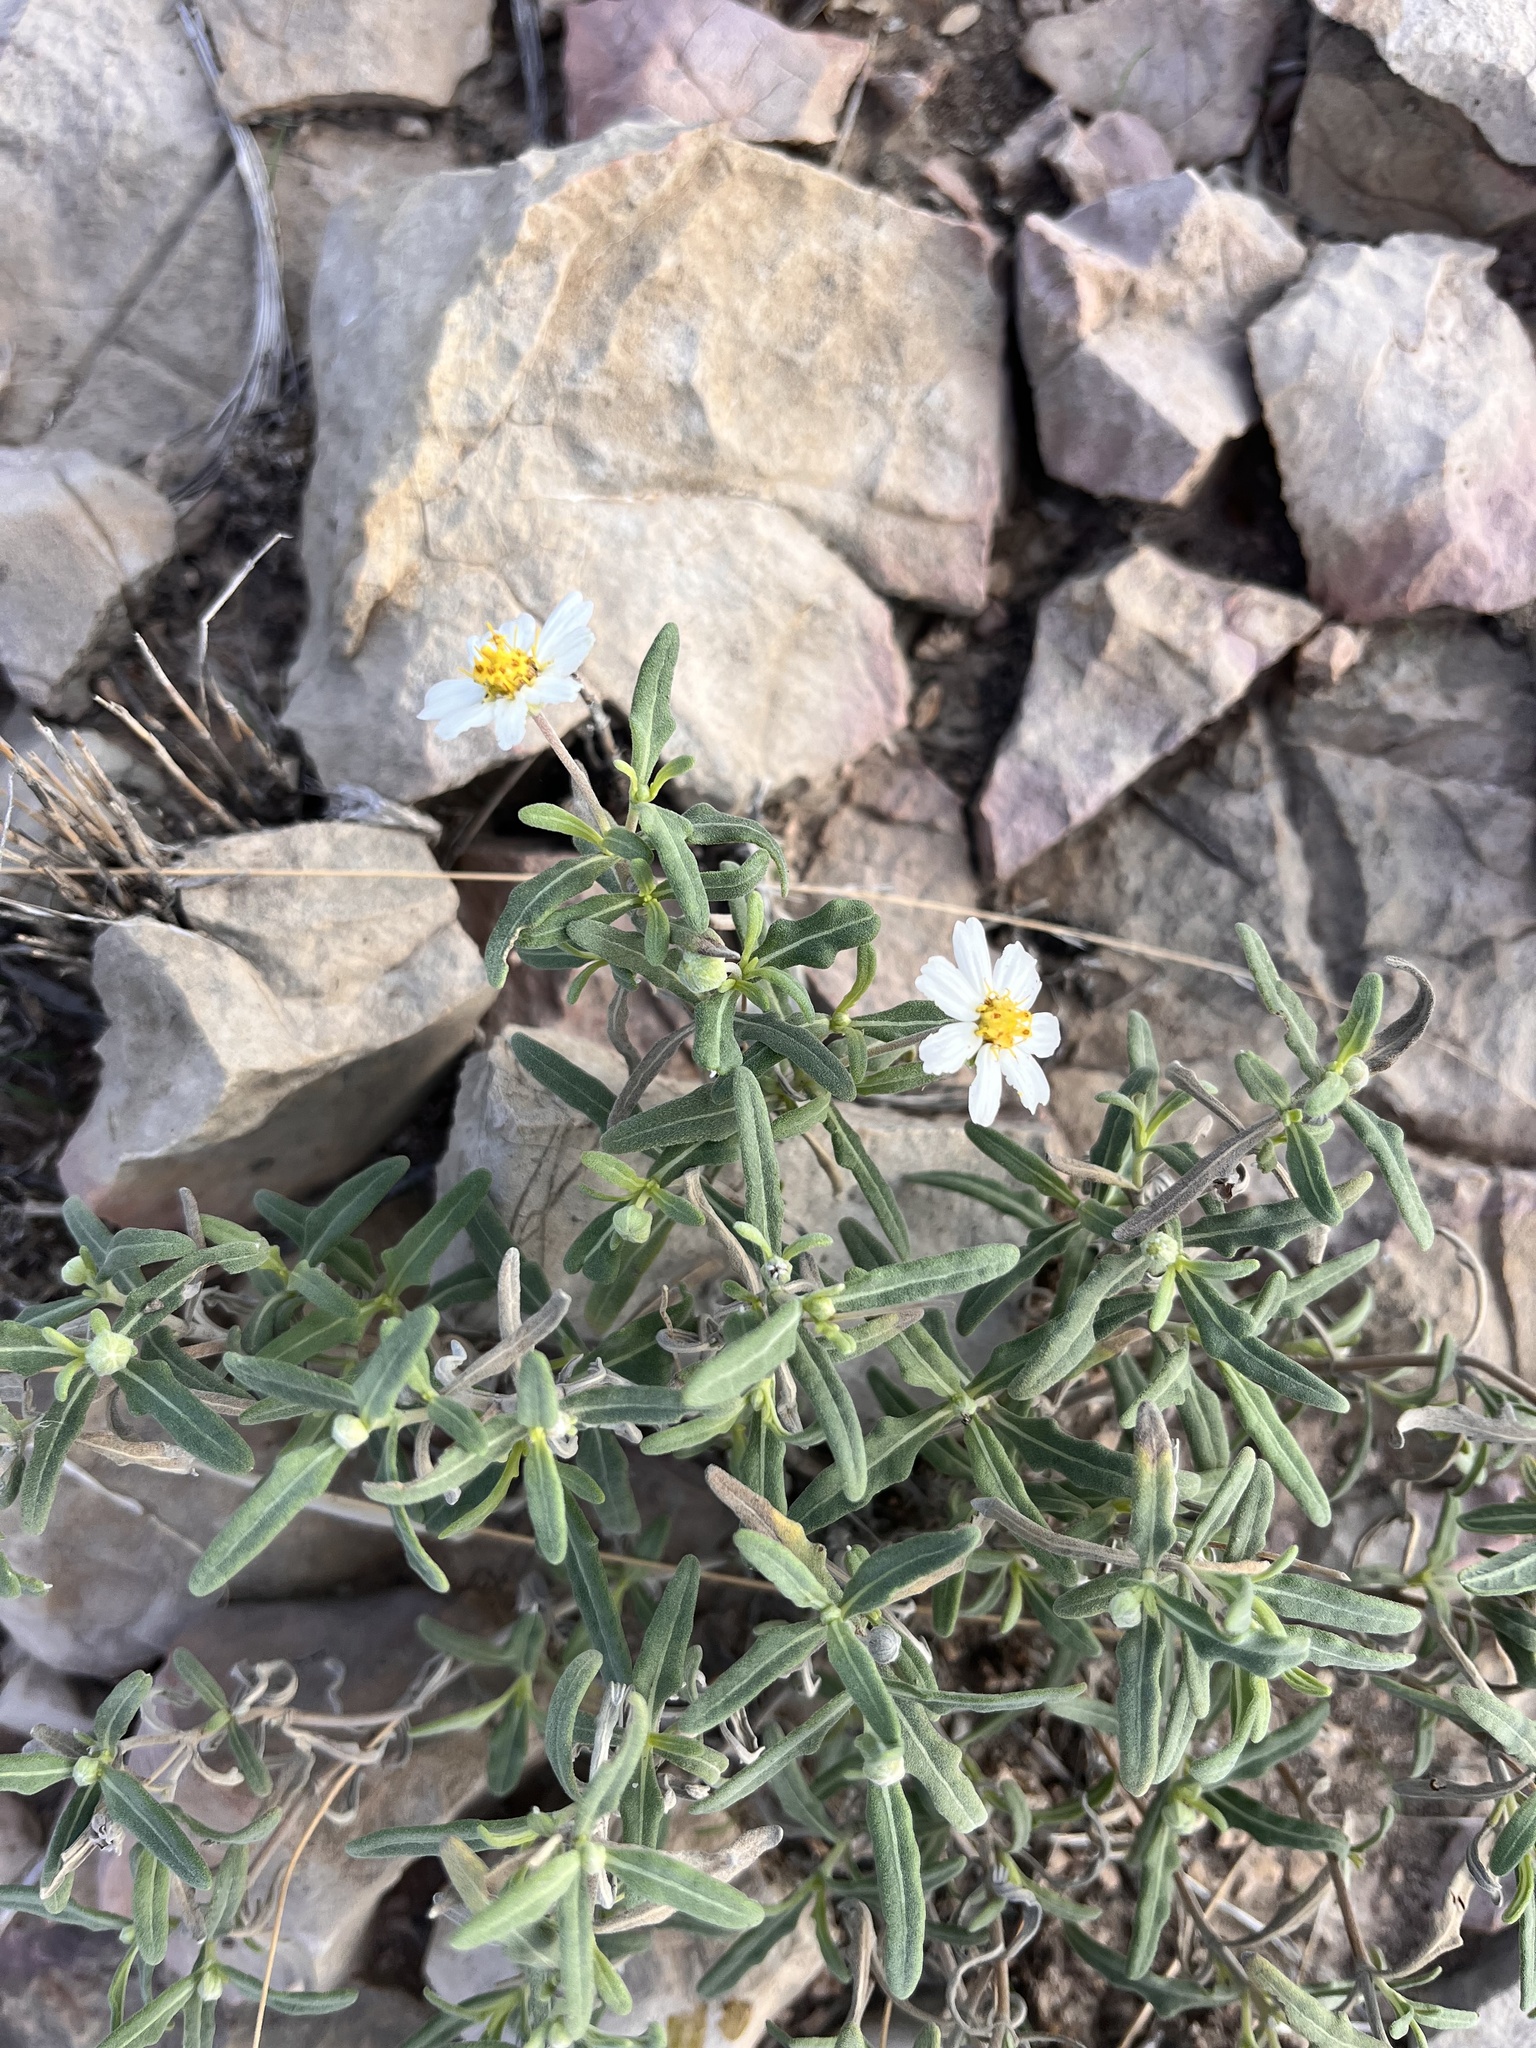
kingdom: Plantae
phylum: Tracheophyta
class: Magnoliopsida
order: Asterales
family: Asteraceae
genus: Melampodium
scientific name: Melampodium leucanthum
